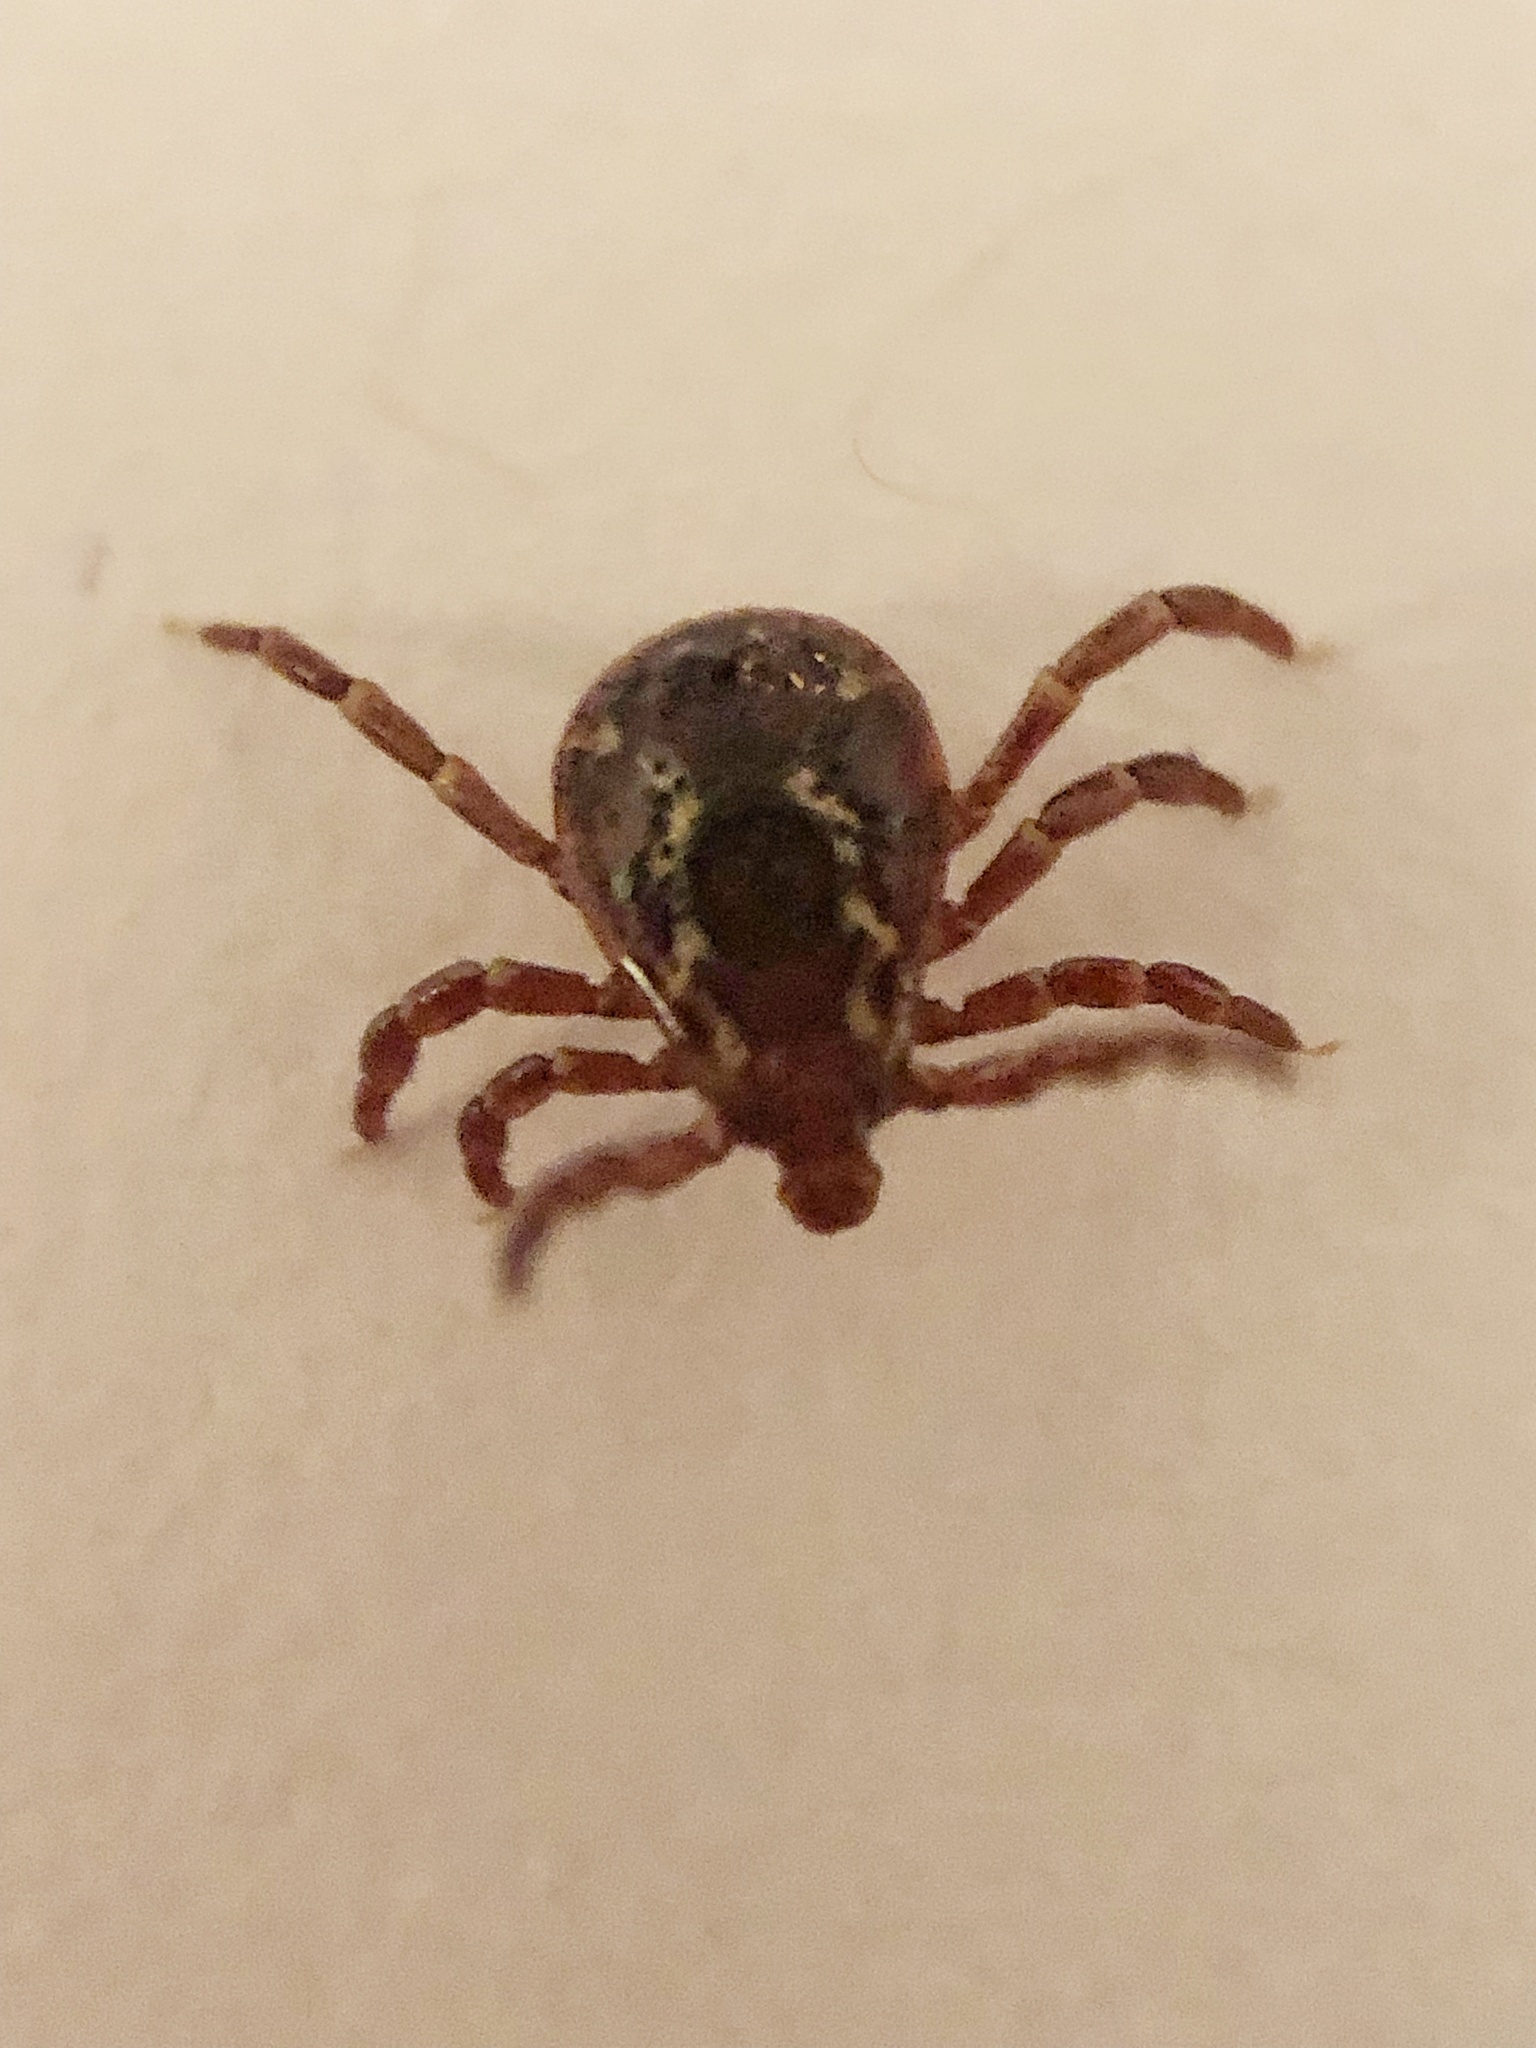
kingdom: Animalia
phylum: Arthropoda
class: Arachnida
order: Ixodida
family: Ixodidae
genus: Dermacentor
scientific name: Dermacentor variabilis
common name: American dog tick
